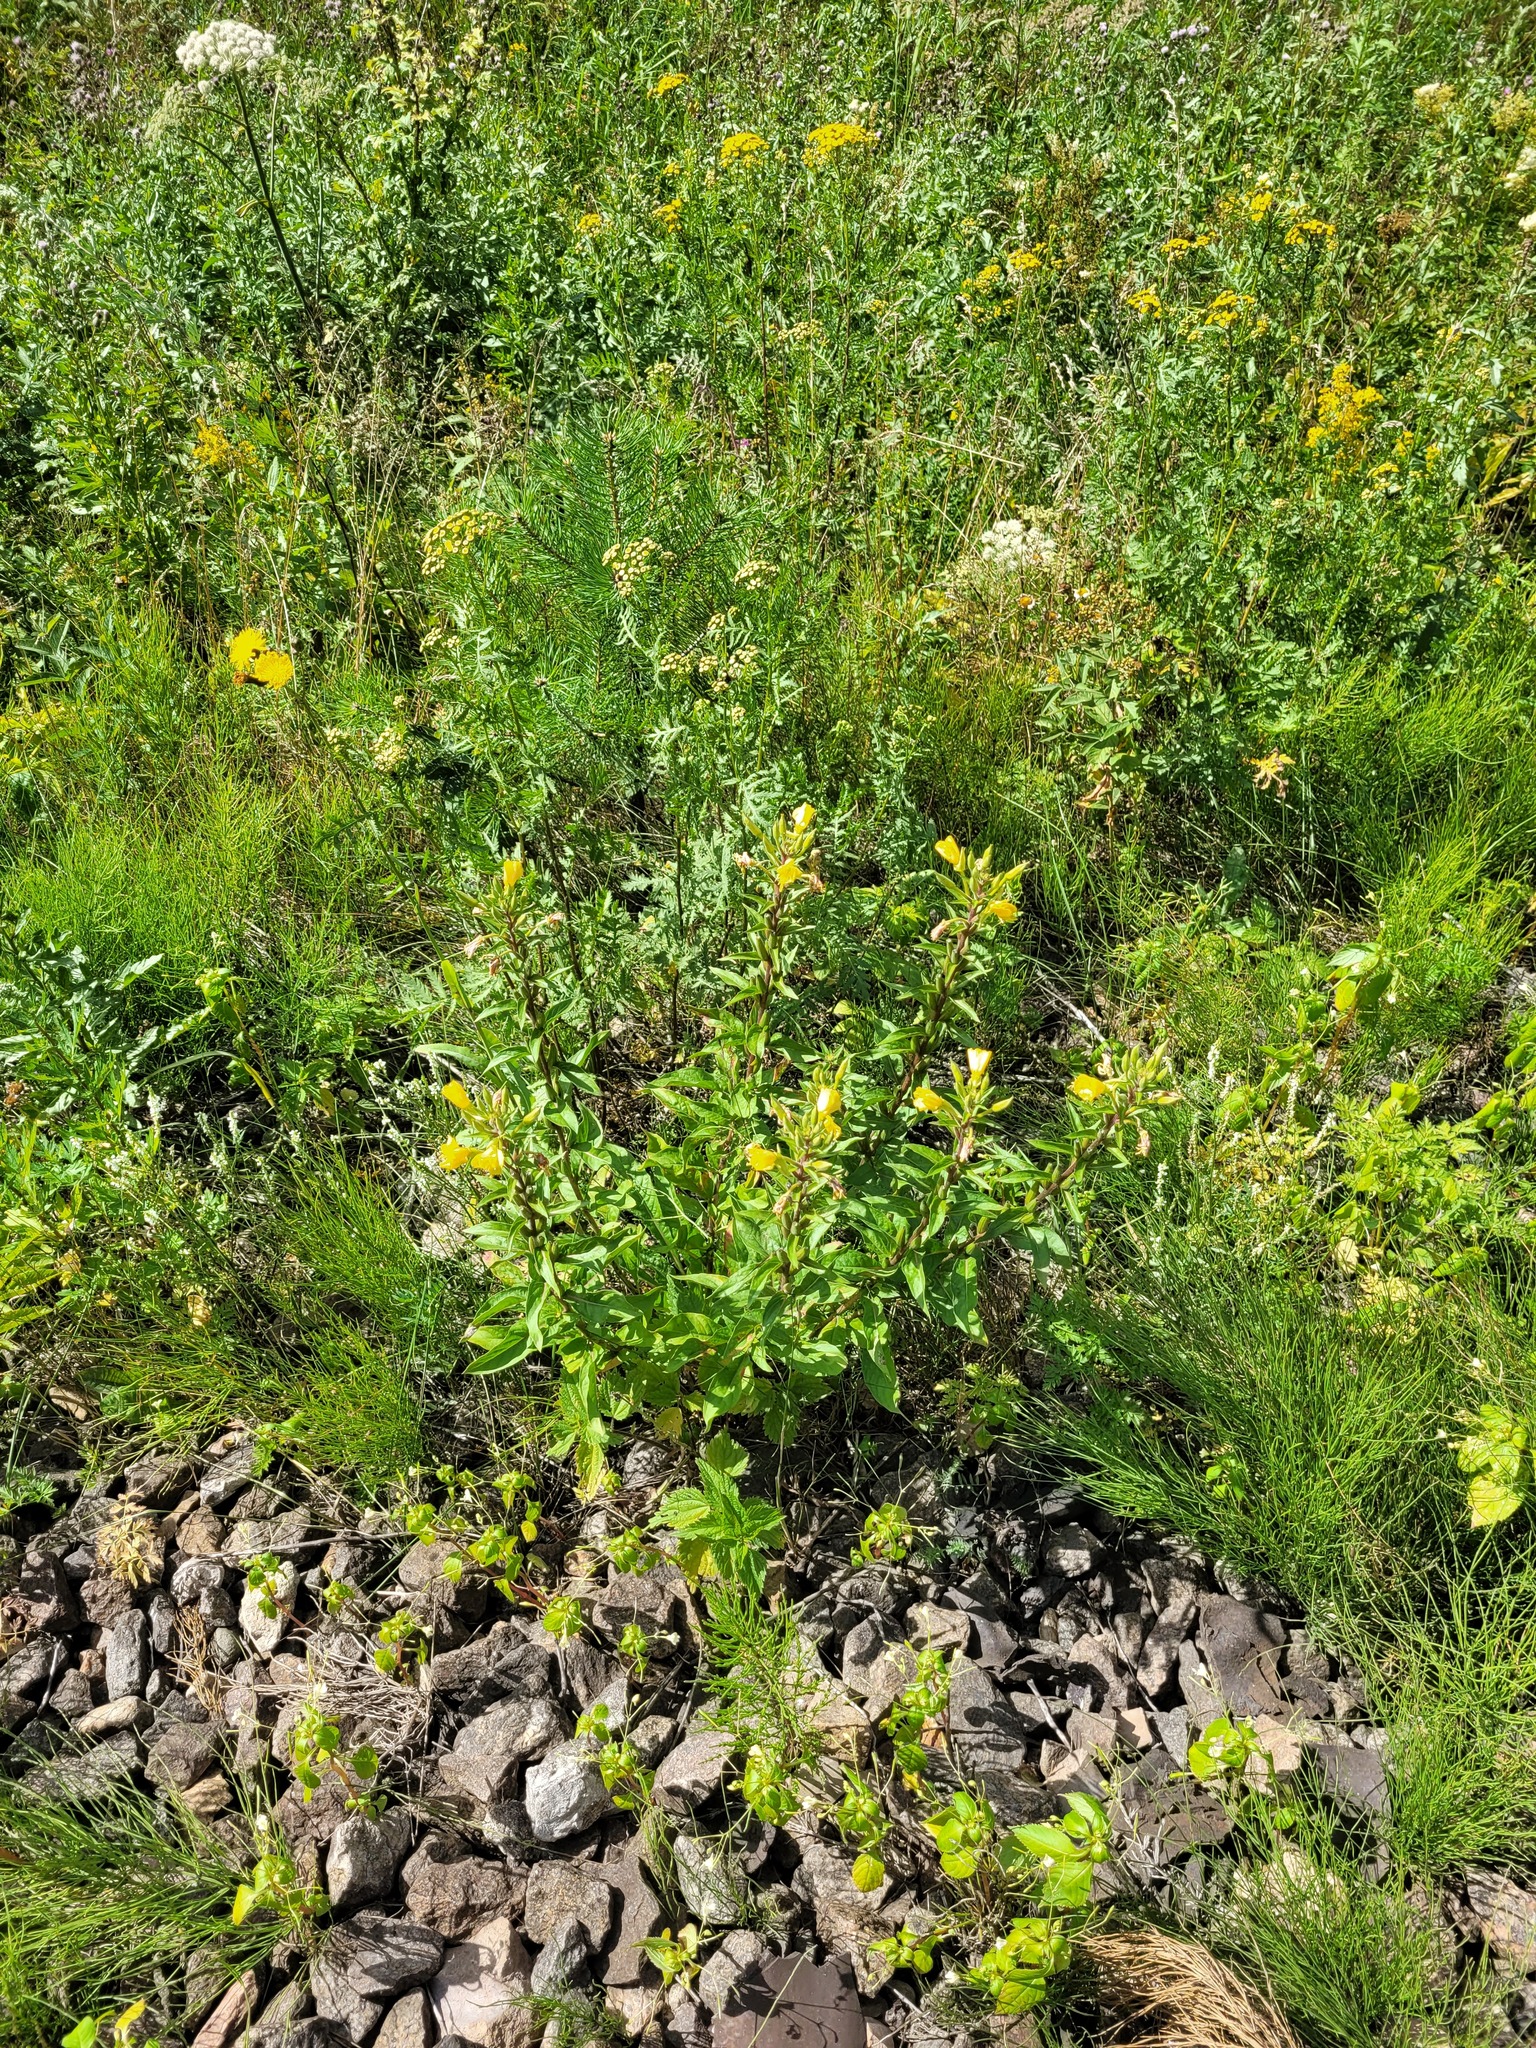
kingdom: Plantae
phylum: Tracheophyta
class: Magnoliopsida
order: Myrtales
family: Onagraceae
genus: Oenothera
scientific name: Oenothera rubricaulis
